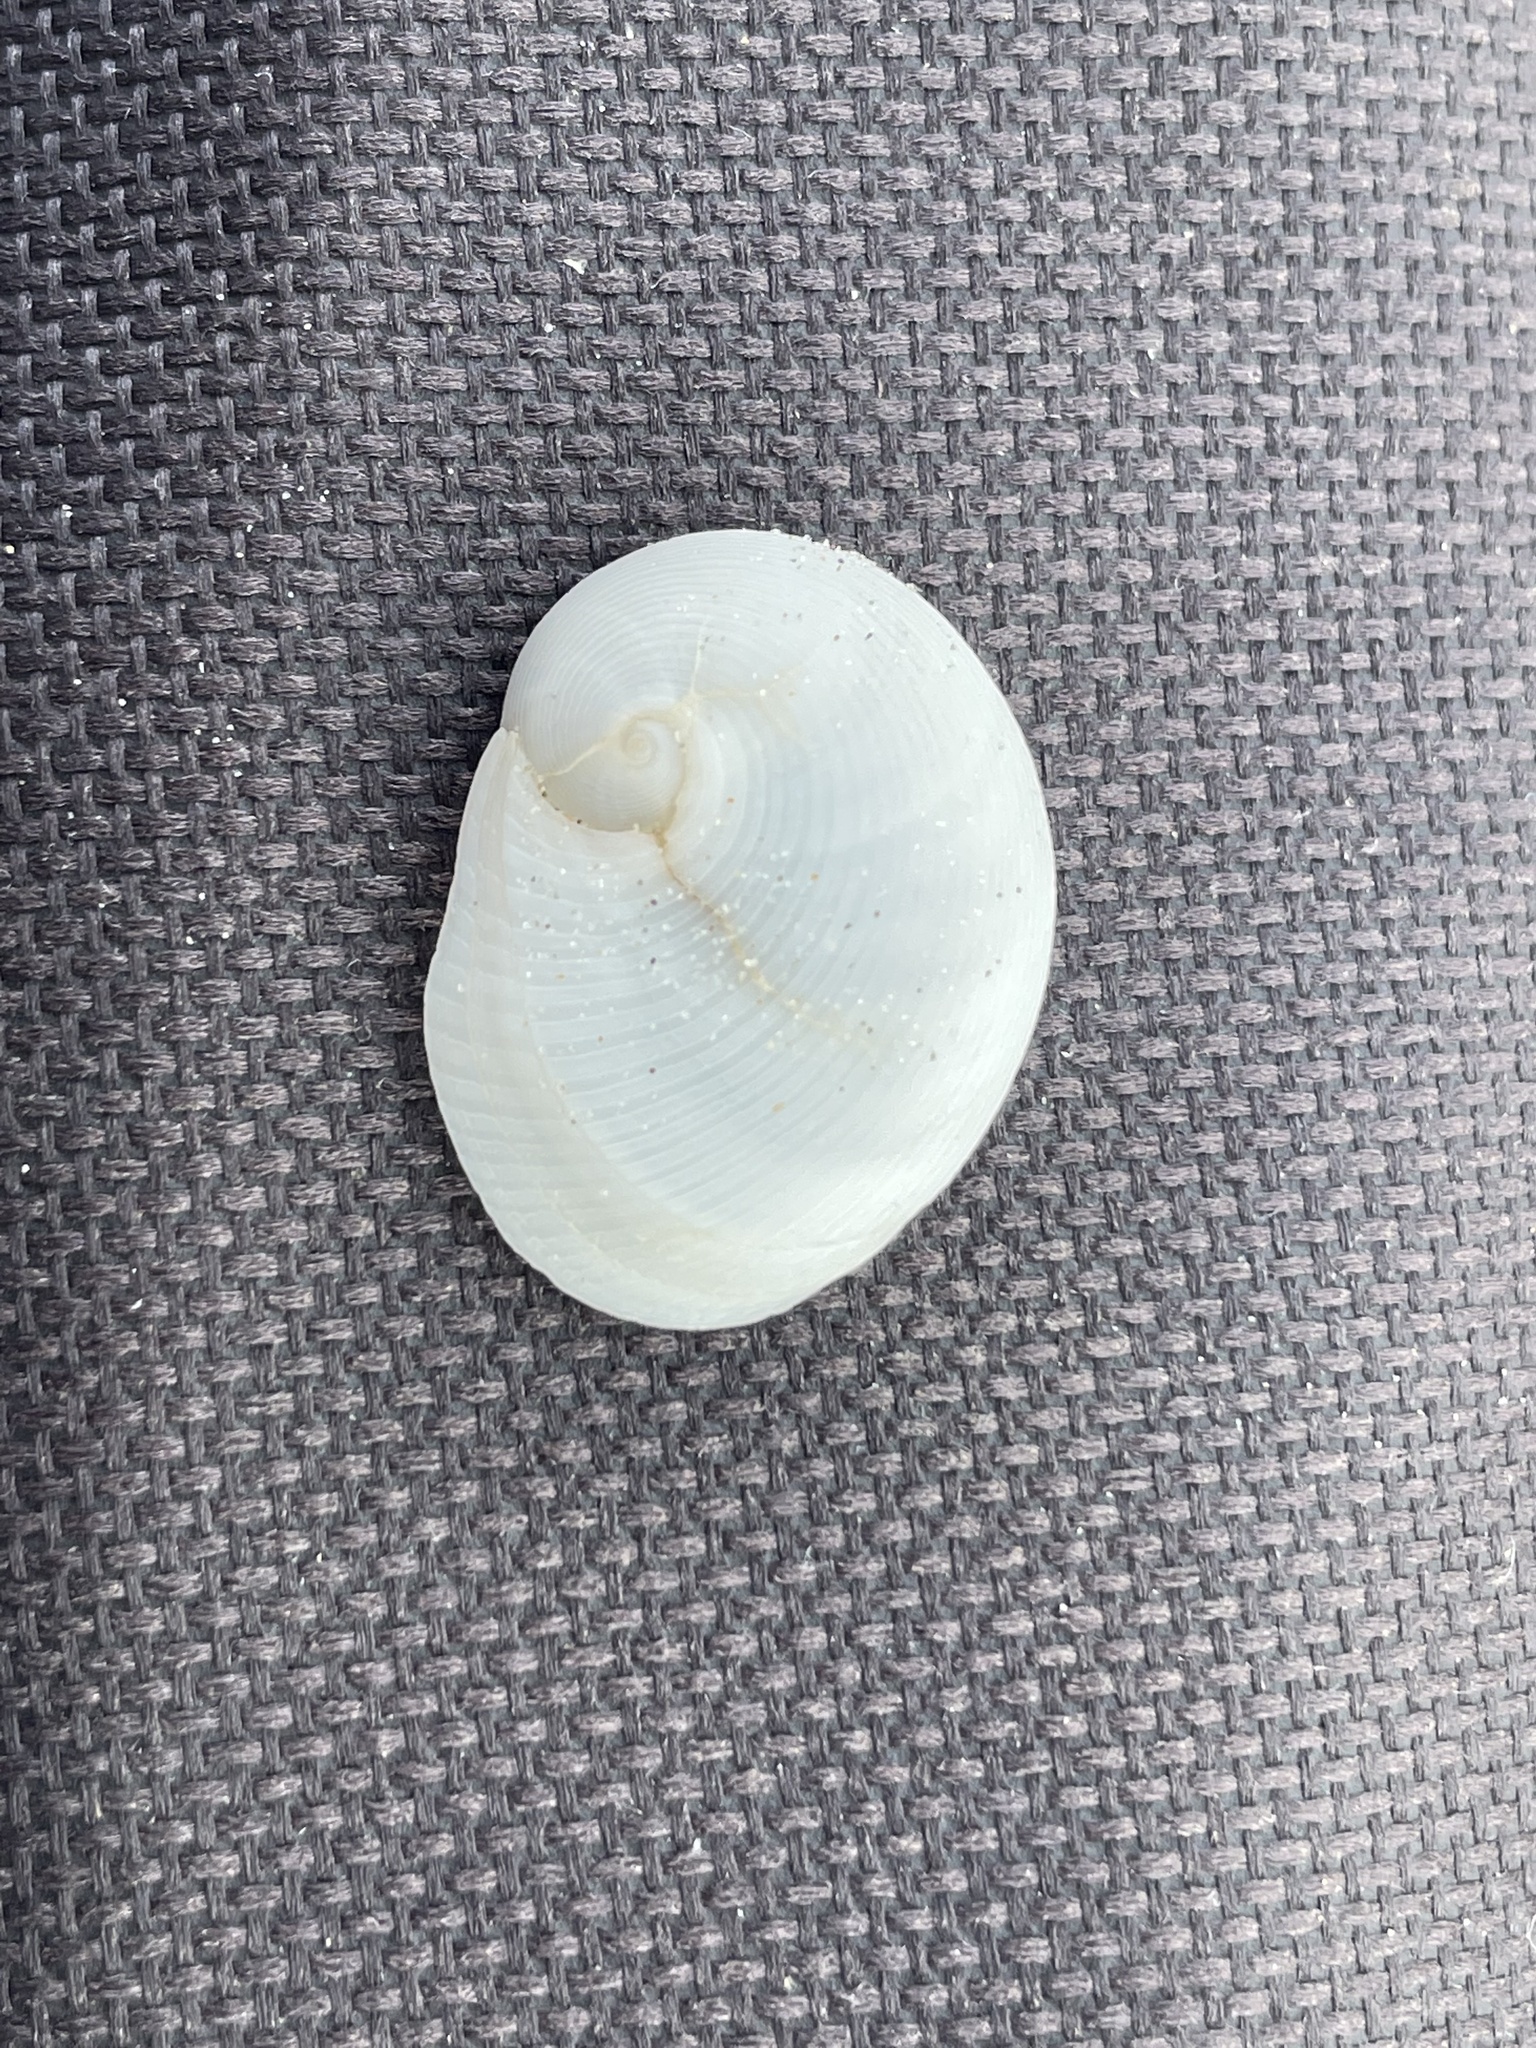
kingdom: Animalia
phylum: Mollusca
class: Gastropoda
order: Littorinimorpha
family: Naticidae
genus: Sinum
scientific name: Sinum perspectivum
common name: White baby ear
